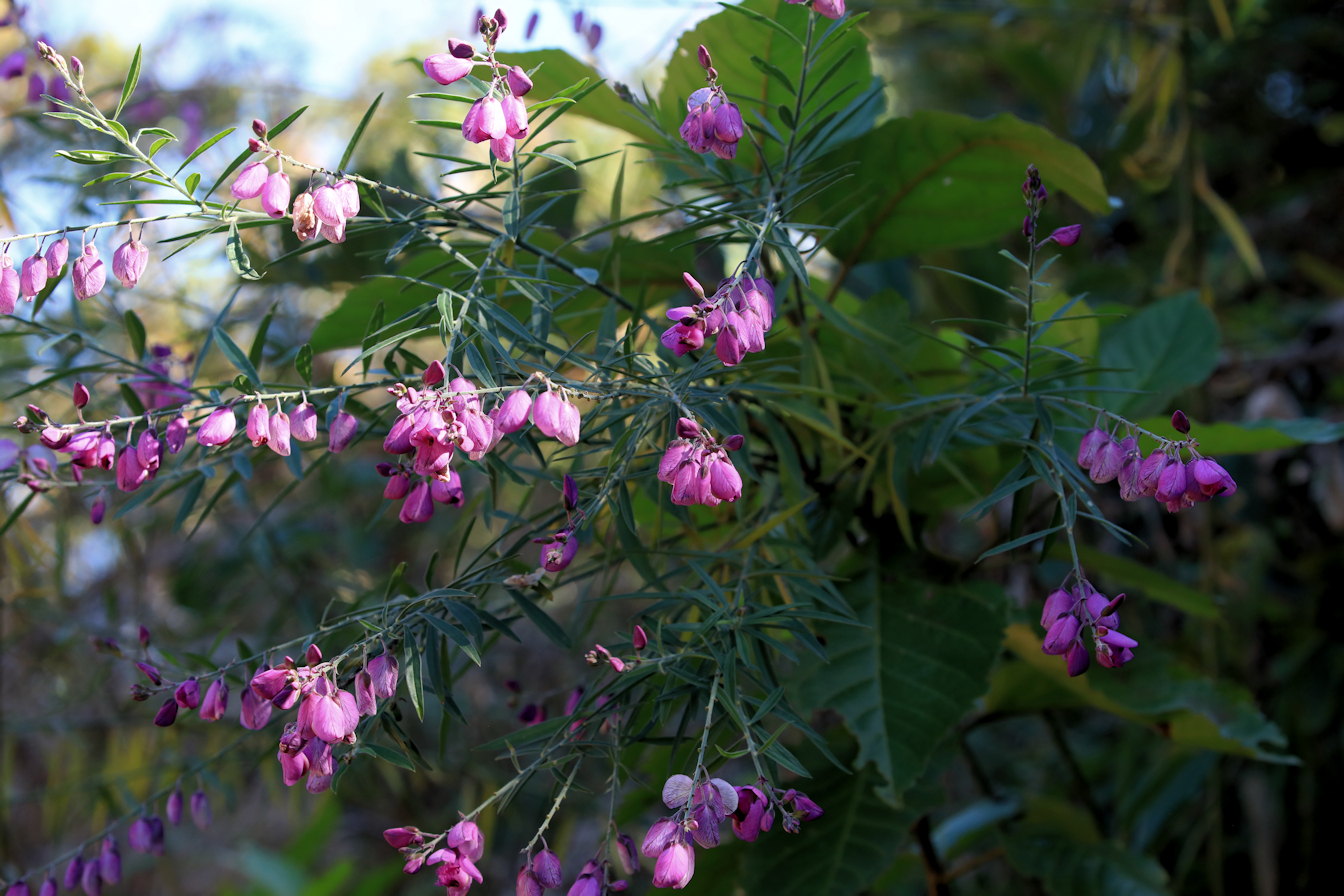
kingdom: Plantae
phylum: Tracheophyta
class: Magnoliopsida
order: Fabales
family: Polygalaceae
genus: Polygala
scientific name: Polygala virgata
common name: Milkwort
